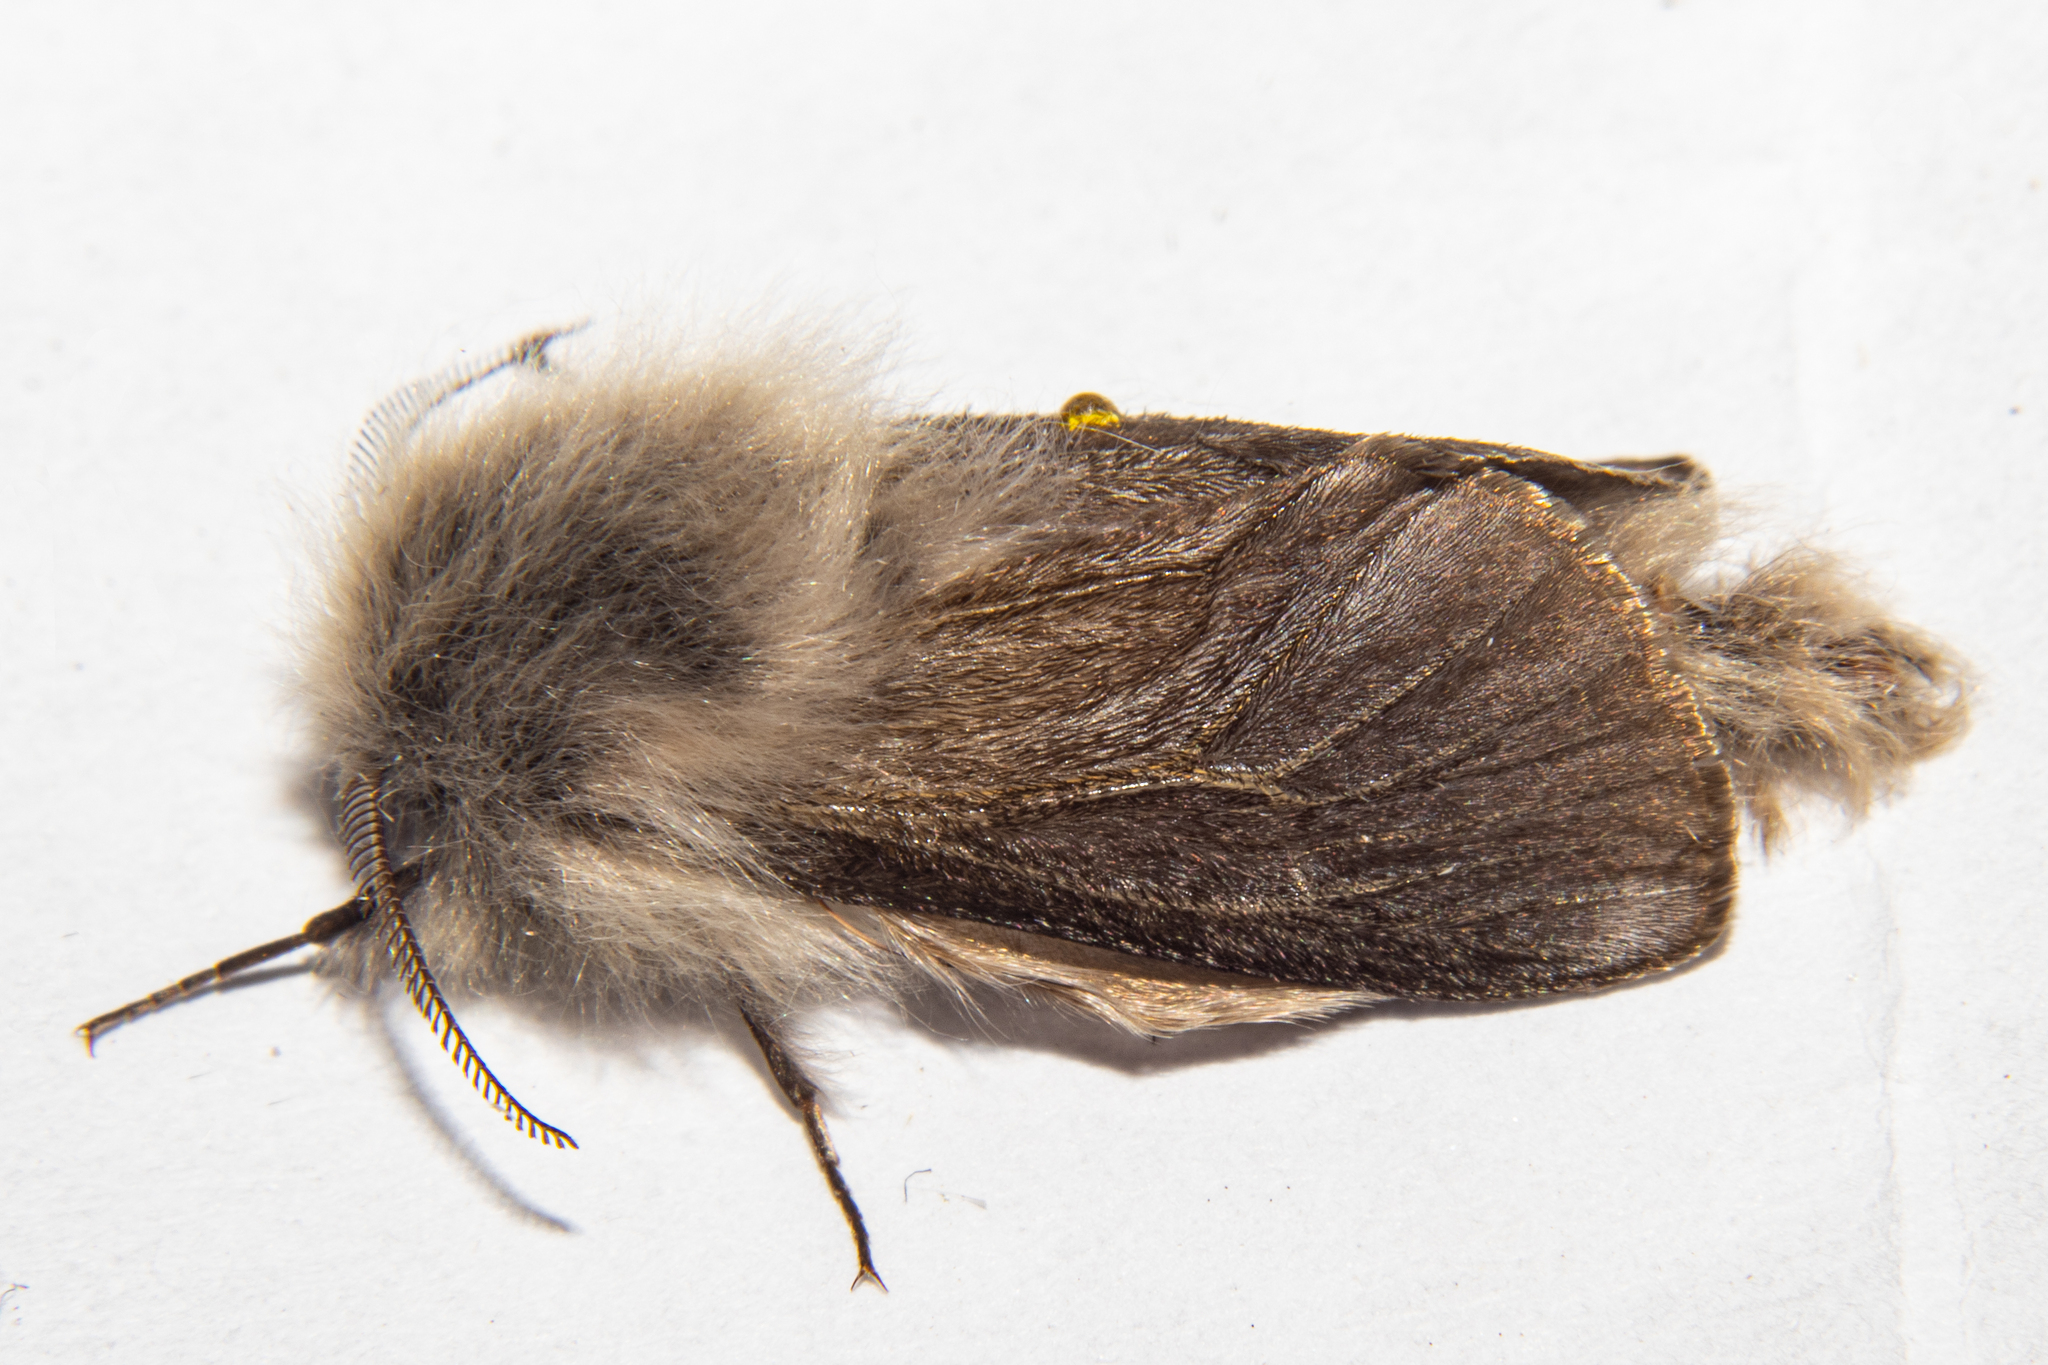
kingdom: Animalia
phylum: Arthropoda
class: Insecta
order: Lepidoptera
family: Psychidae
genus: Orophora
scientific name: Orophora unicolor
